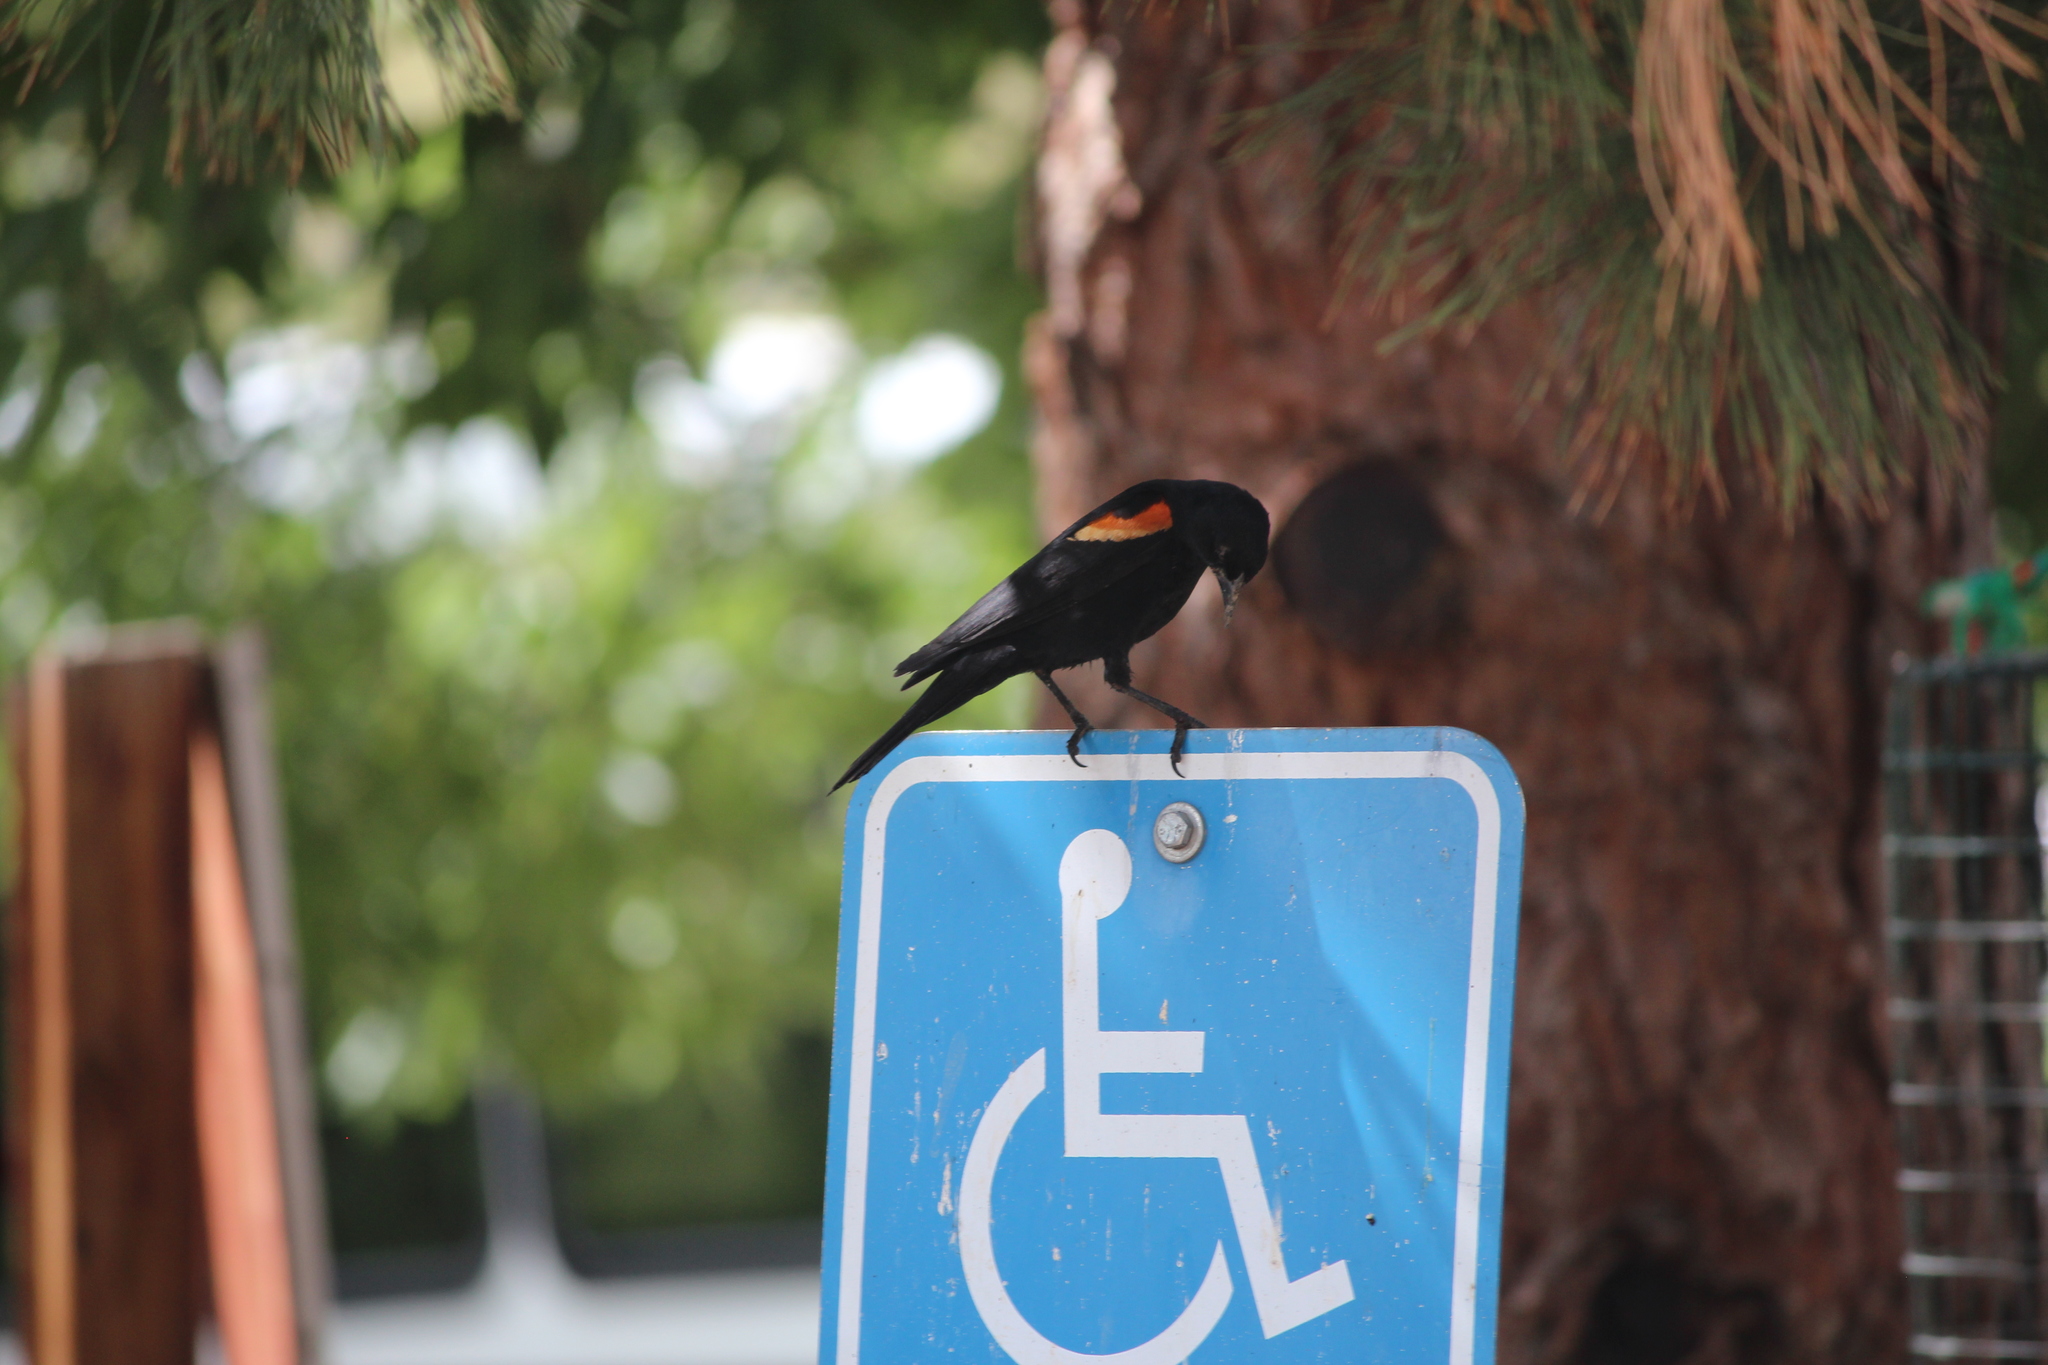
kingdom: Animalia
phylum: Chordata
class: Aves
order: Passeriformes
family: Icteridae
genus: Agelaius
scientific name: Agelaius phoeniceus
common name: Red-winged blackbird
